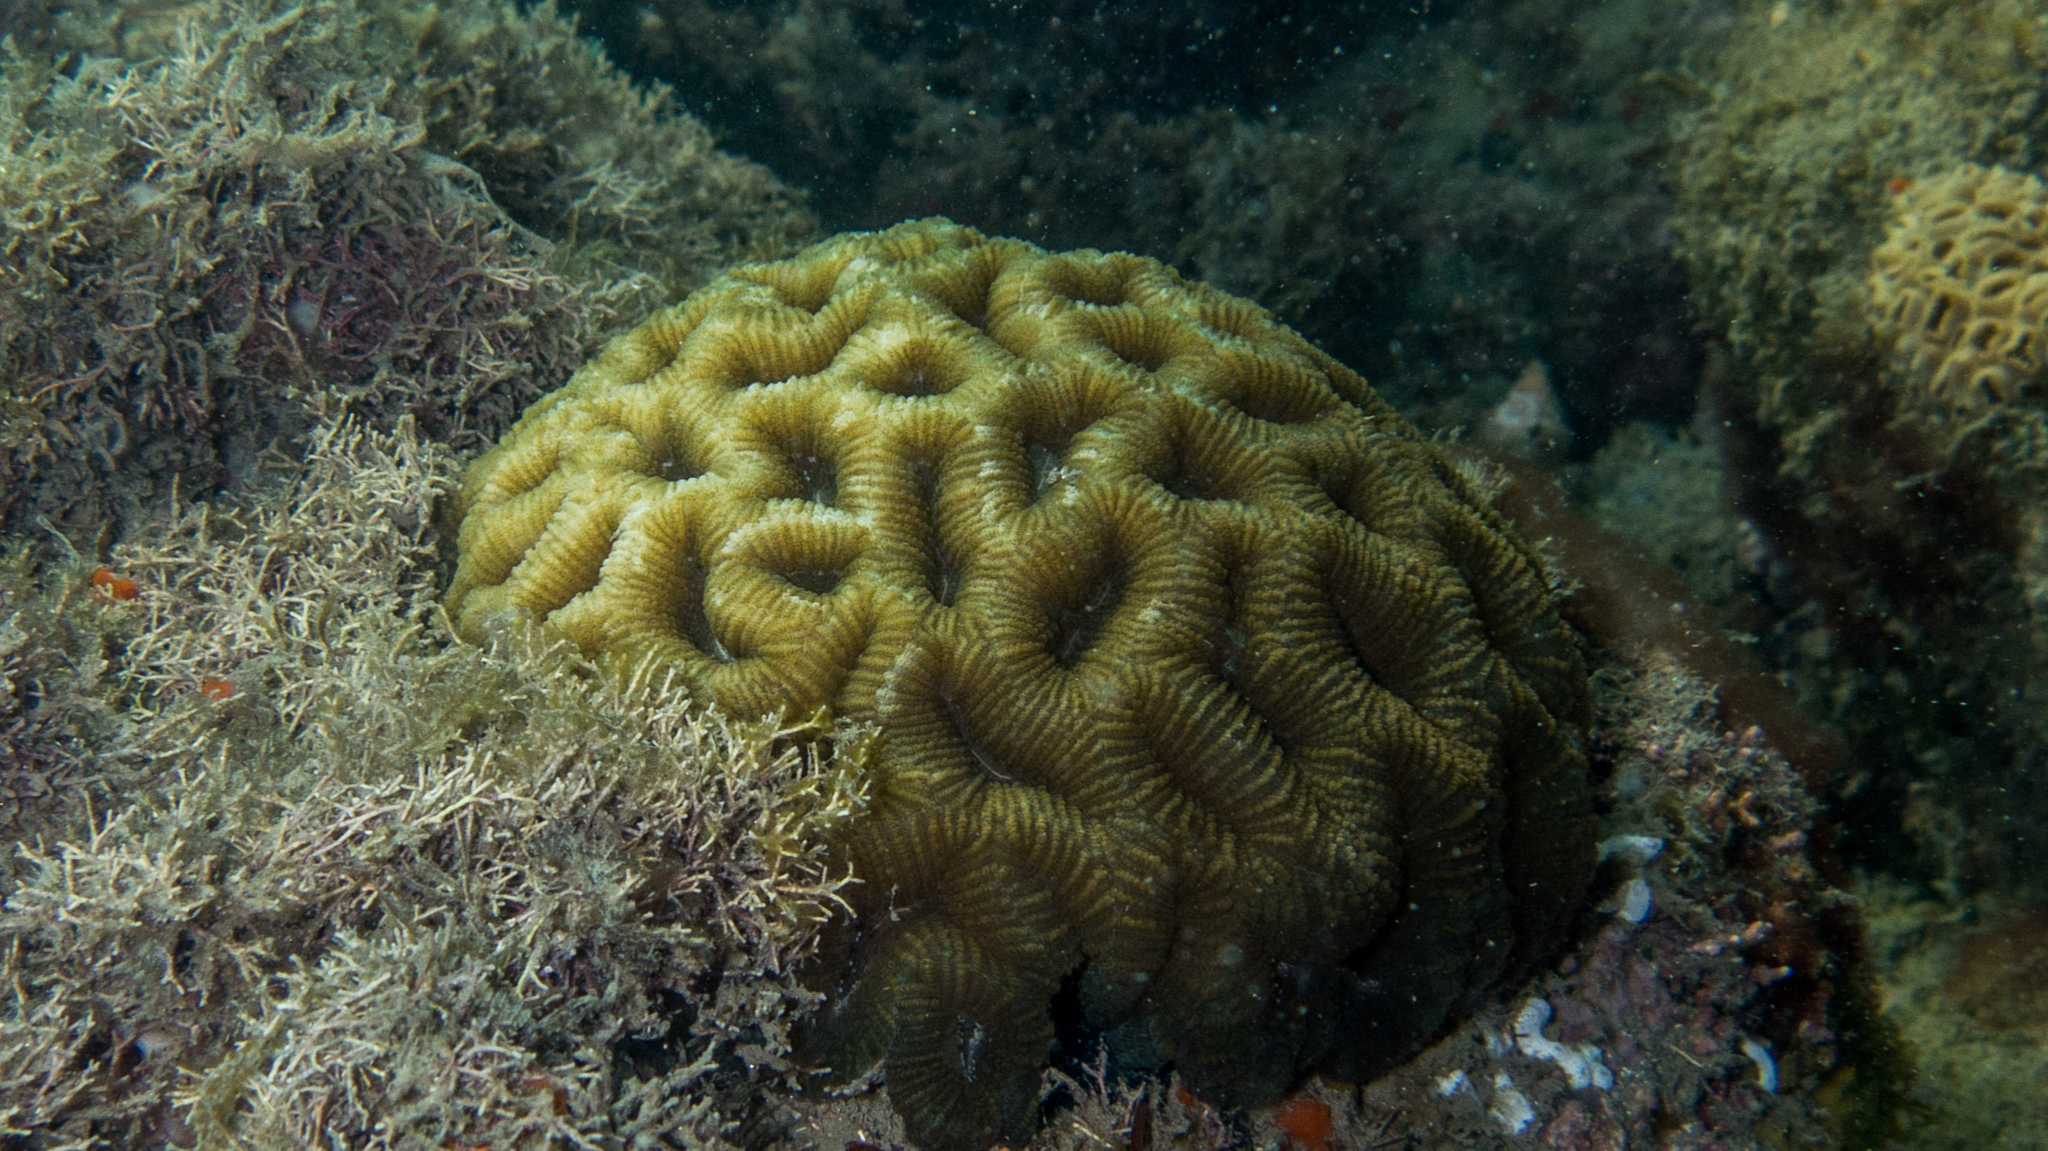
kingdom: Animalia
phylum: Cnidaria
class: Anthozoa
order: Scleractinia
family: Faviidae
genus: Mussismilia
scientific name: Mussismilia hispida
